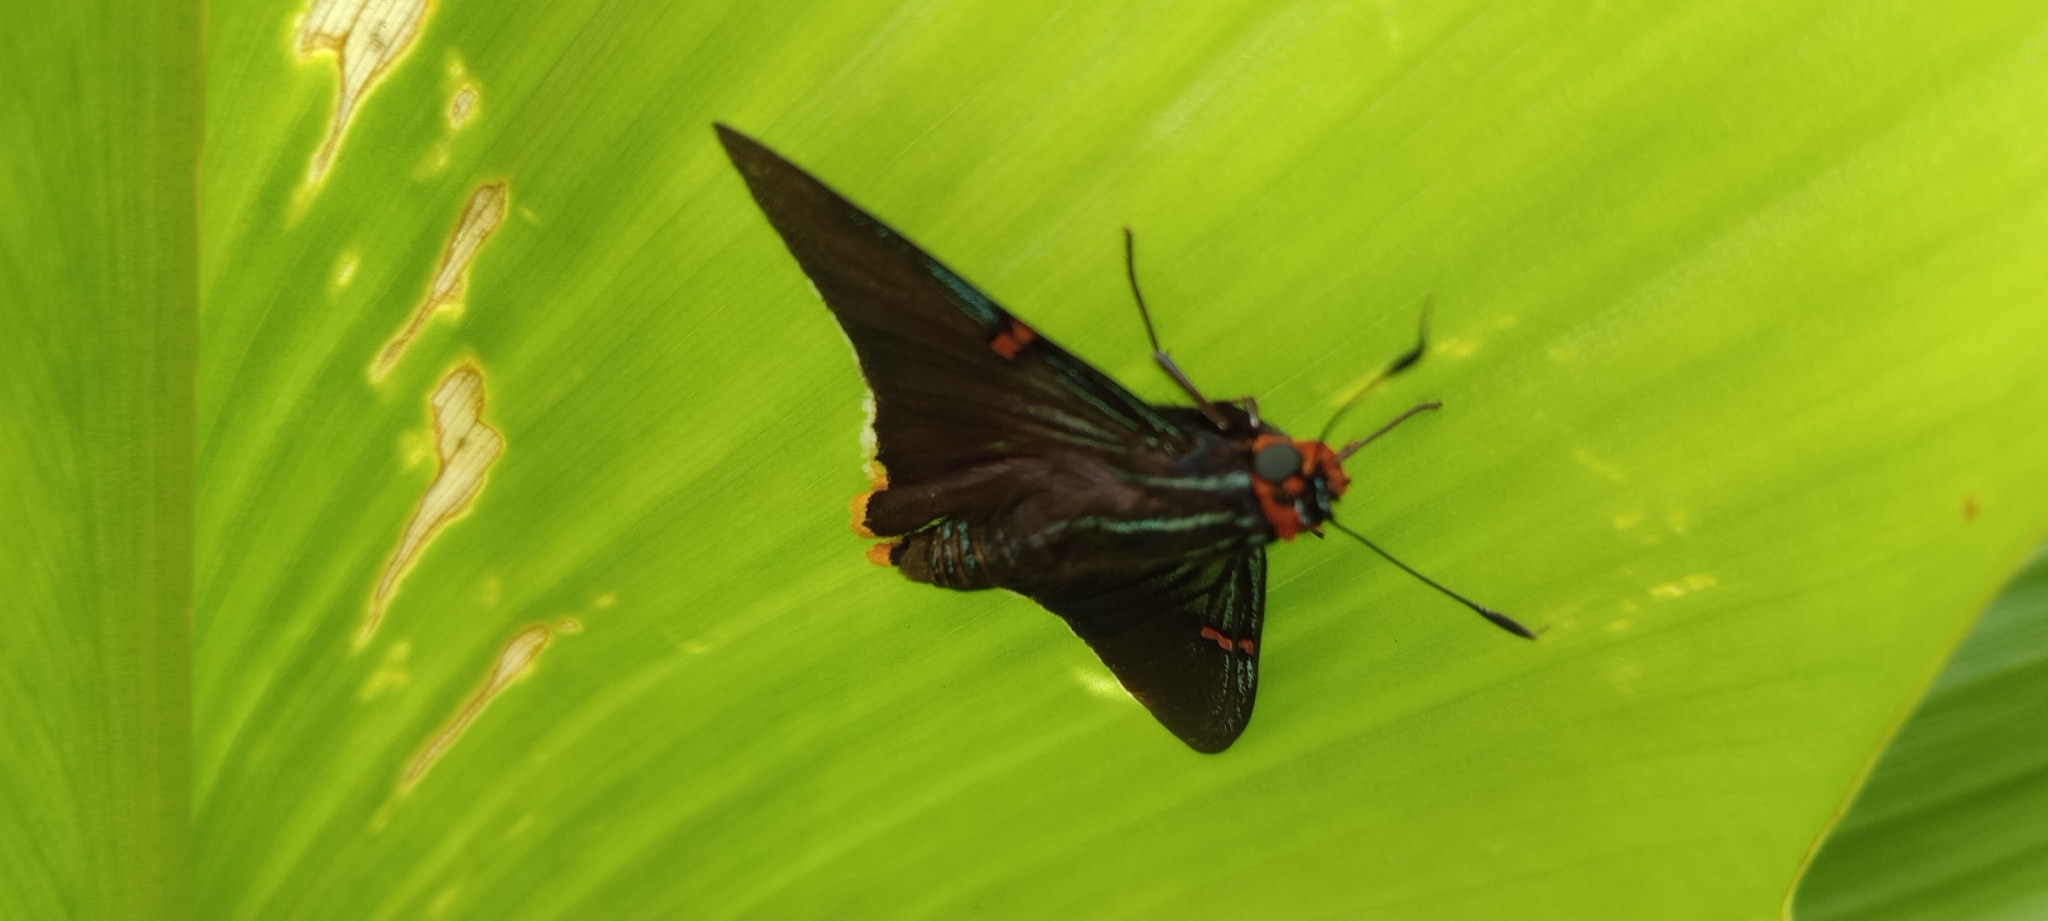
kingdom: Animalia
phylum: Arthropoda
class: Insecta
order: Lepidoptera
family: Hesperiidae
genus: Phocides
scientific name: Phocides polybius
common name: Guava skipper
